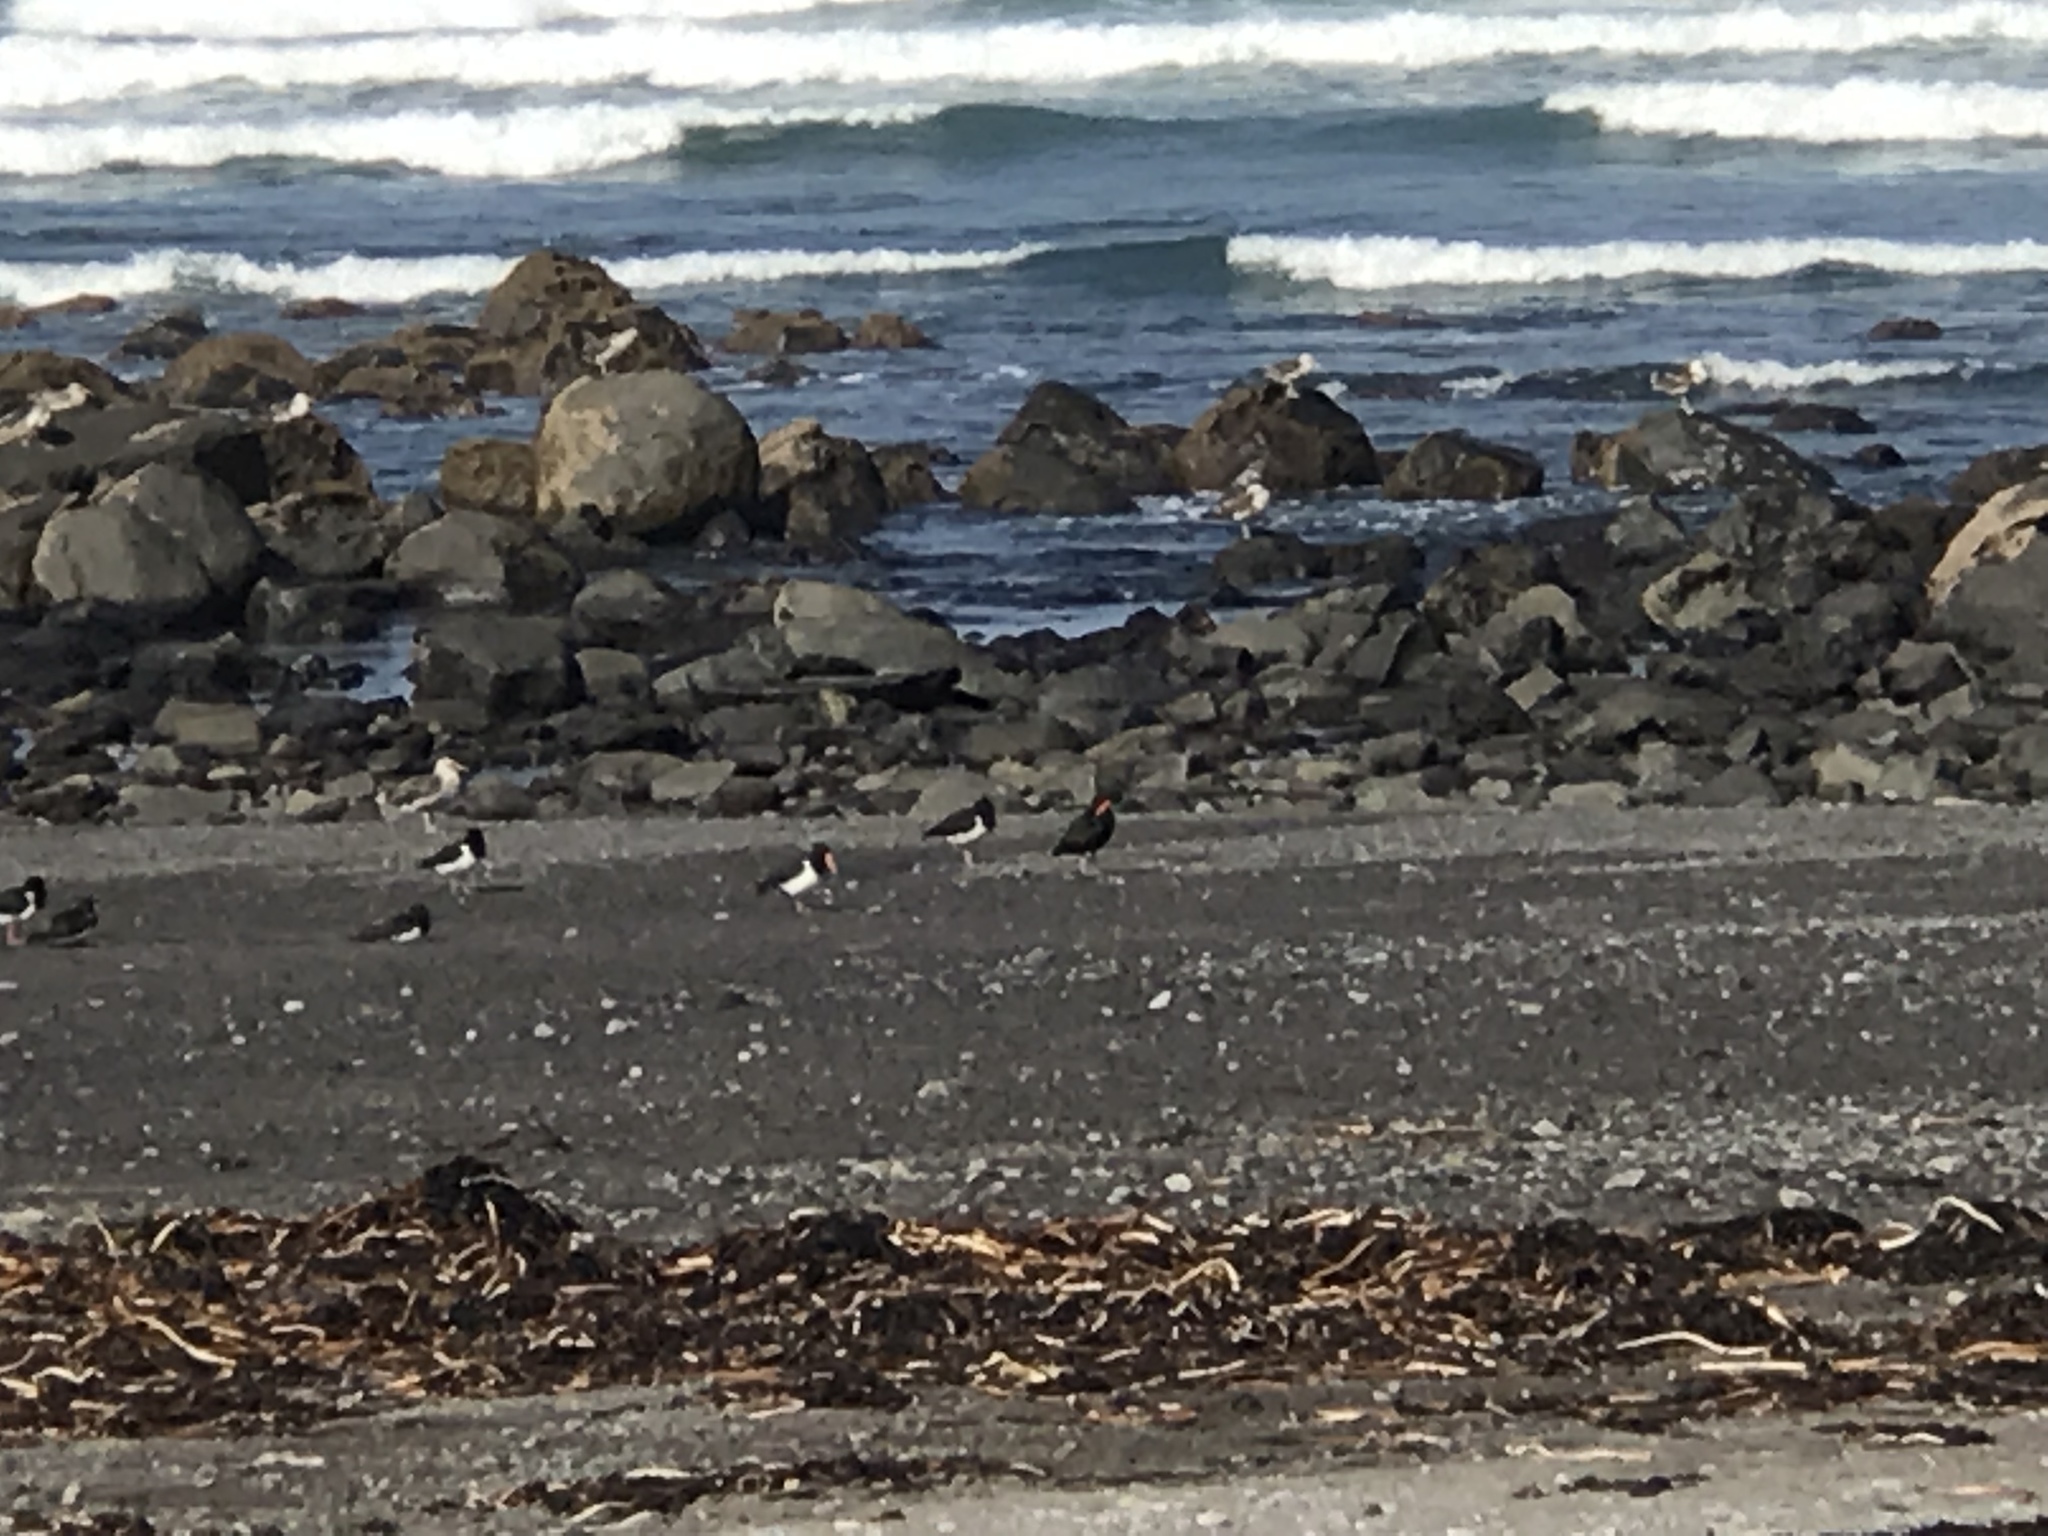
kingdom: Animalia
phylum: Chordata
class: Aves
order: Charadriiformes
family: Haematopodidae
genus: Haematopus
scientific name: Haematopus finschi
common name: South island oystercatcher
